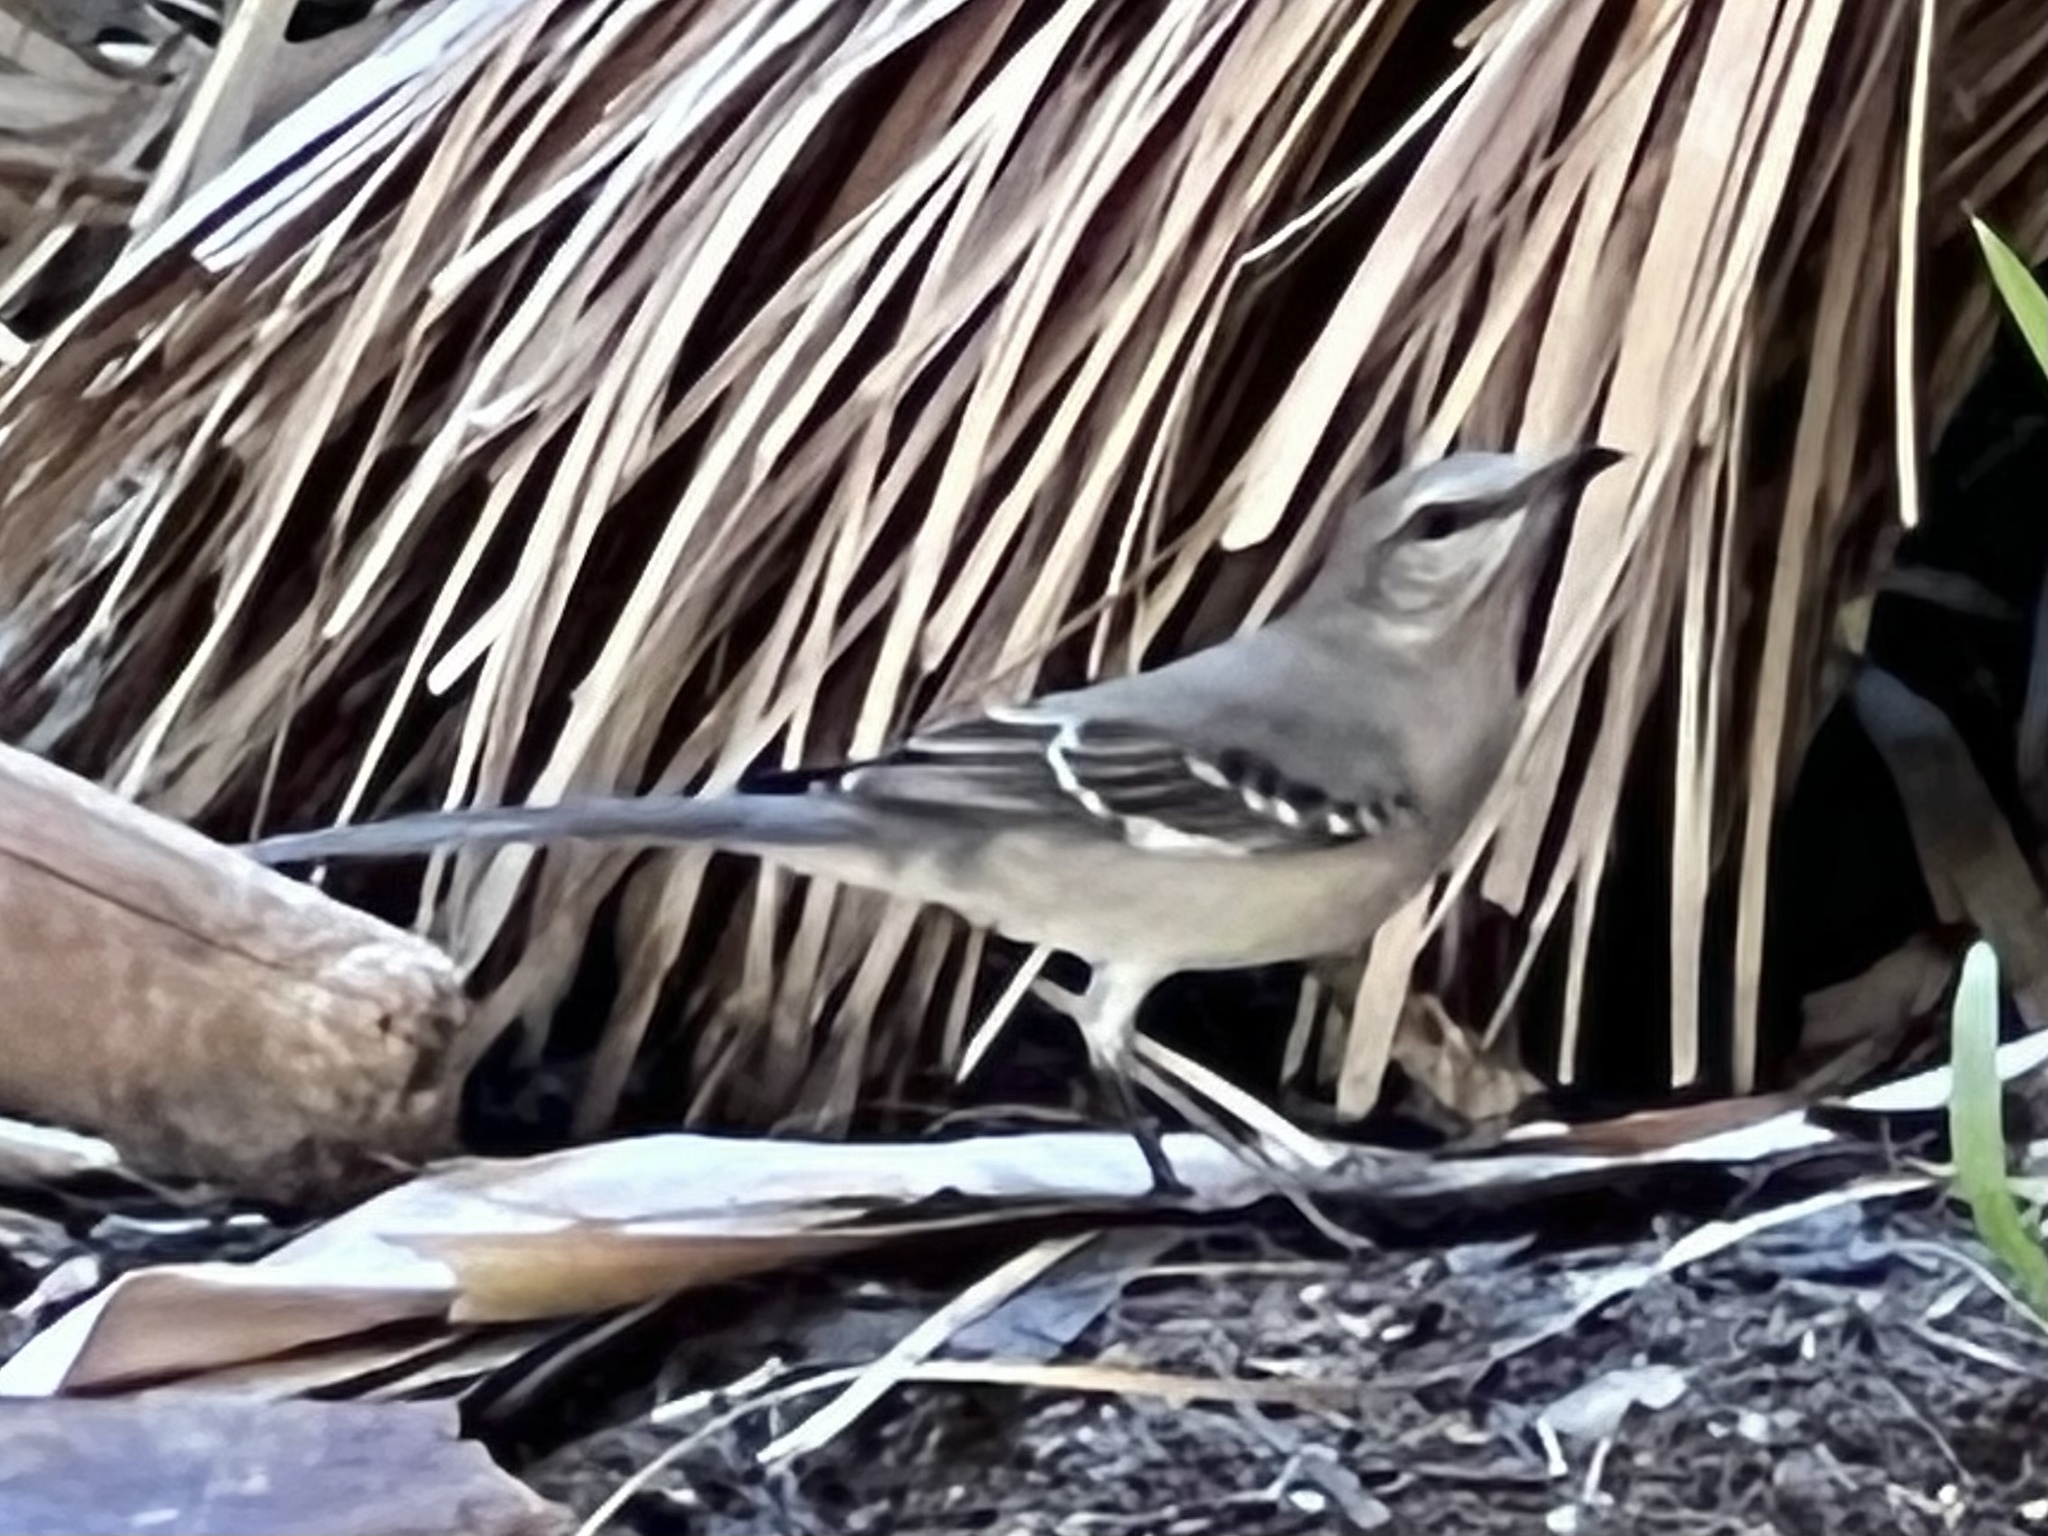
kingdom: Animalia
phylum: Chordata
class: Aves
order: Passeriformes
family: Mimidae
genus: Mimus
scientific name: Mimus polyglottos
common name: Northern mockingbird
